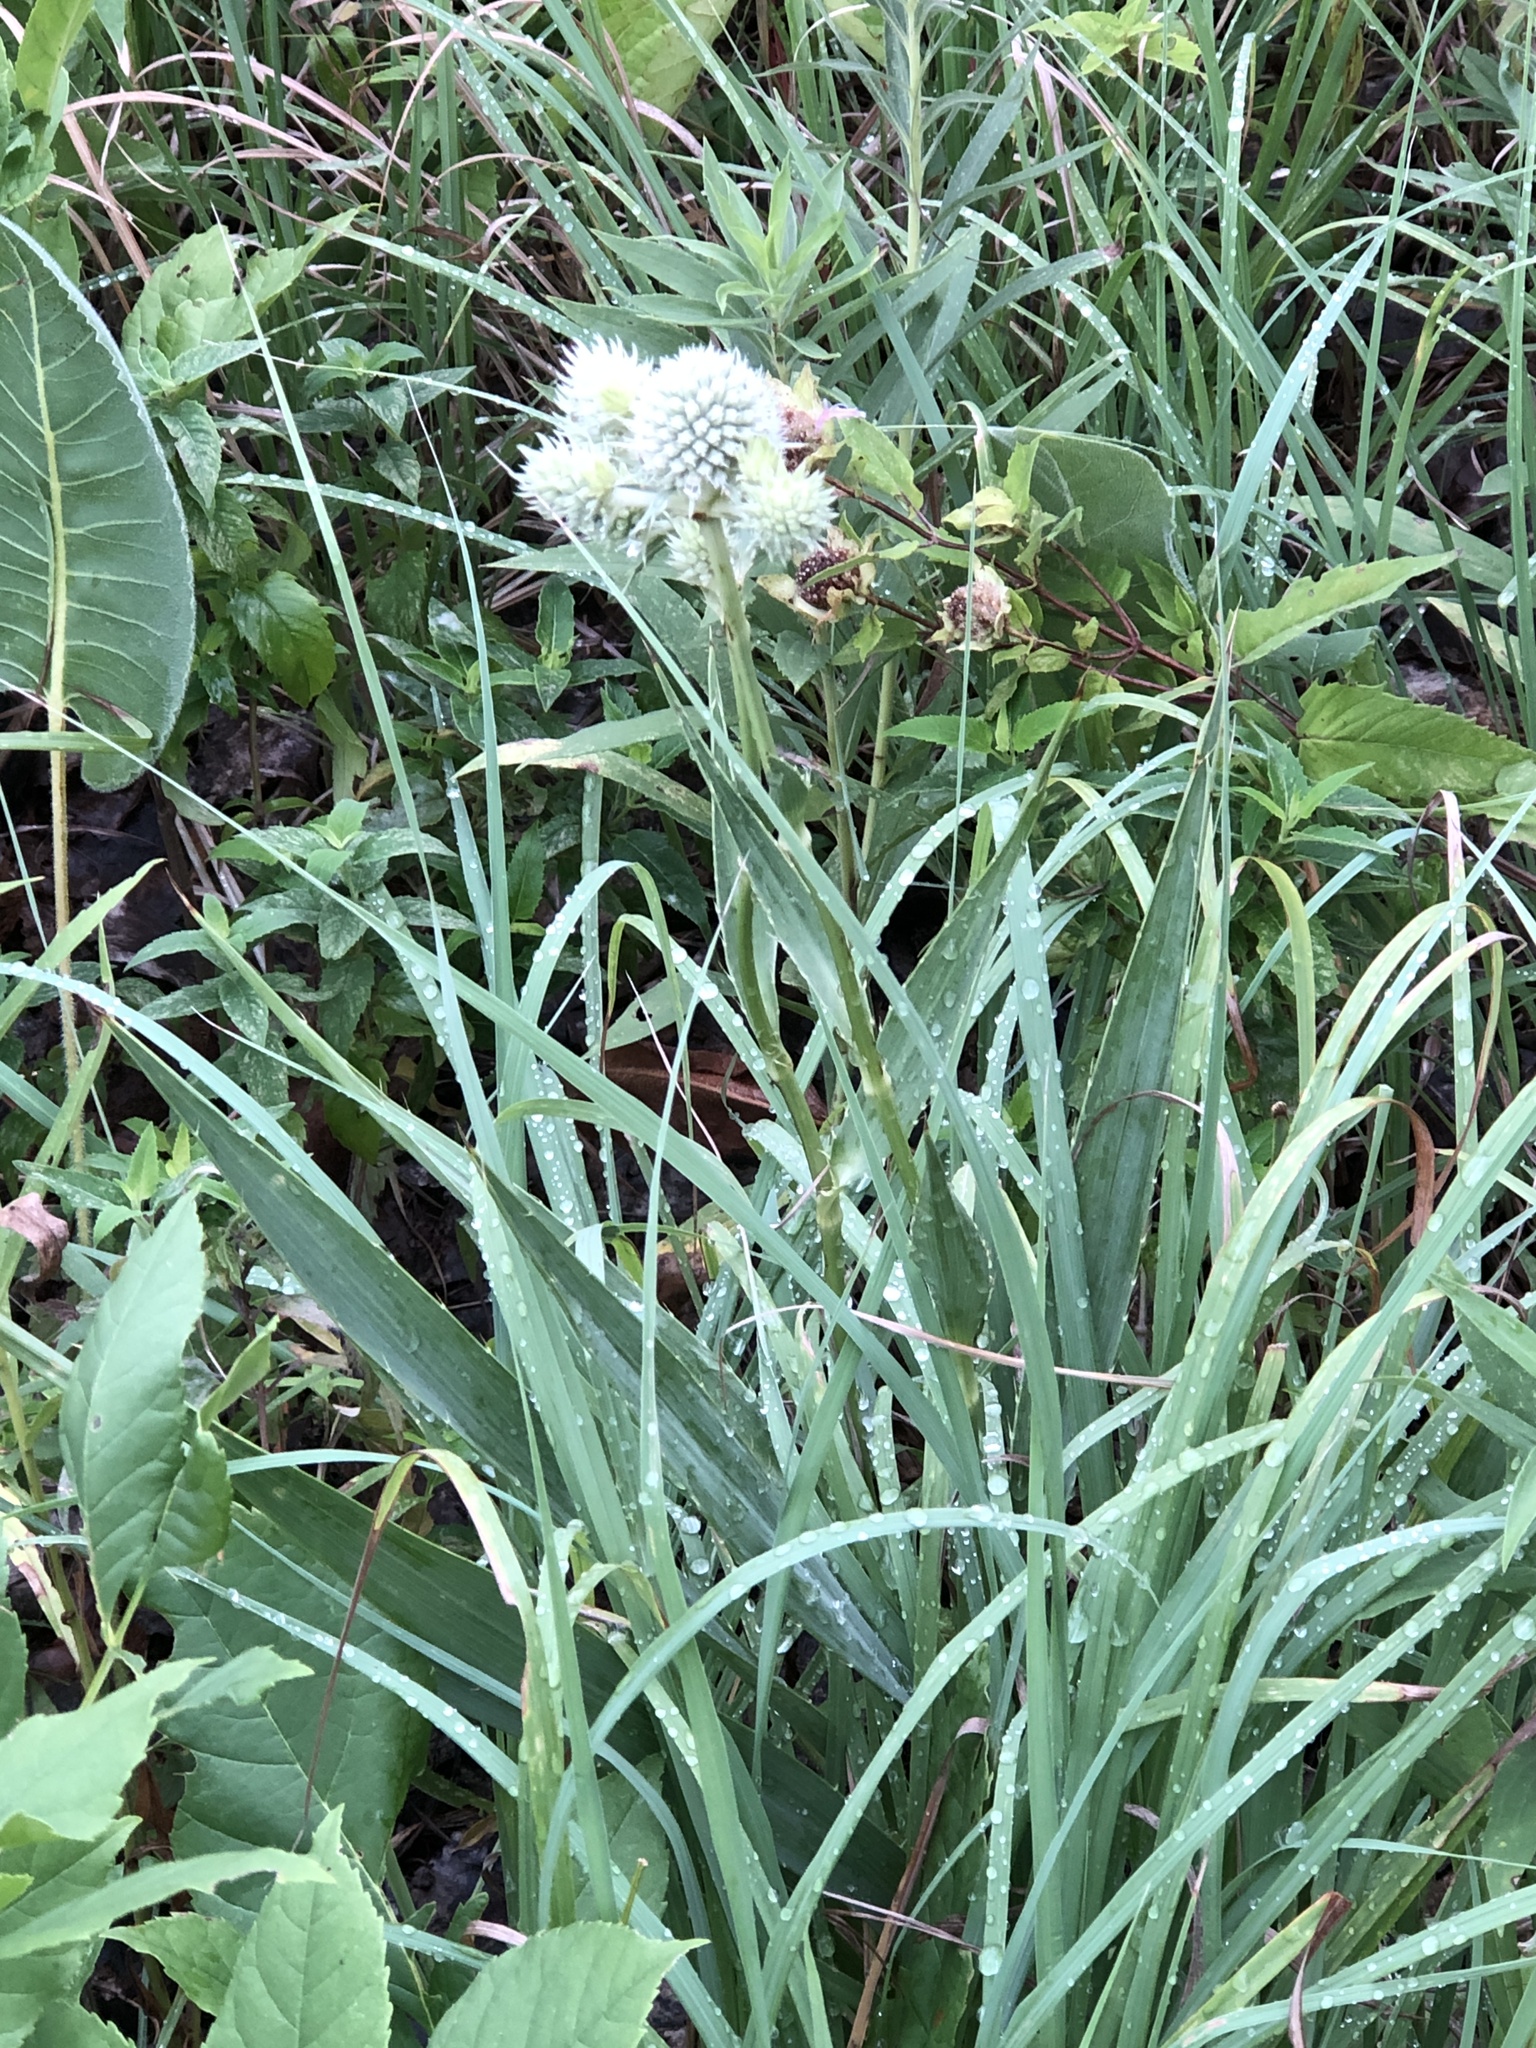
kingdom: Plantae
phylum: Tracheophyta
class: Magnoliopsida
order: Apiales
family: Apiaceae
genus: Eryngium
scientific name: Eryngium yuccifolium
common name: Button eryngo
